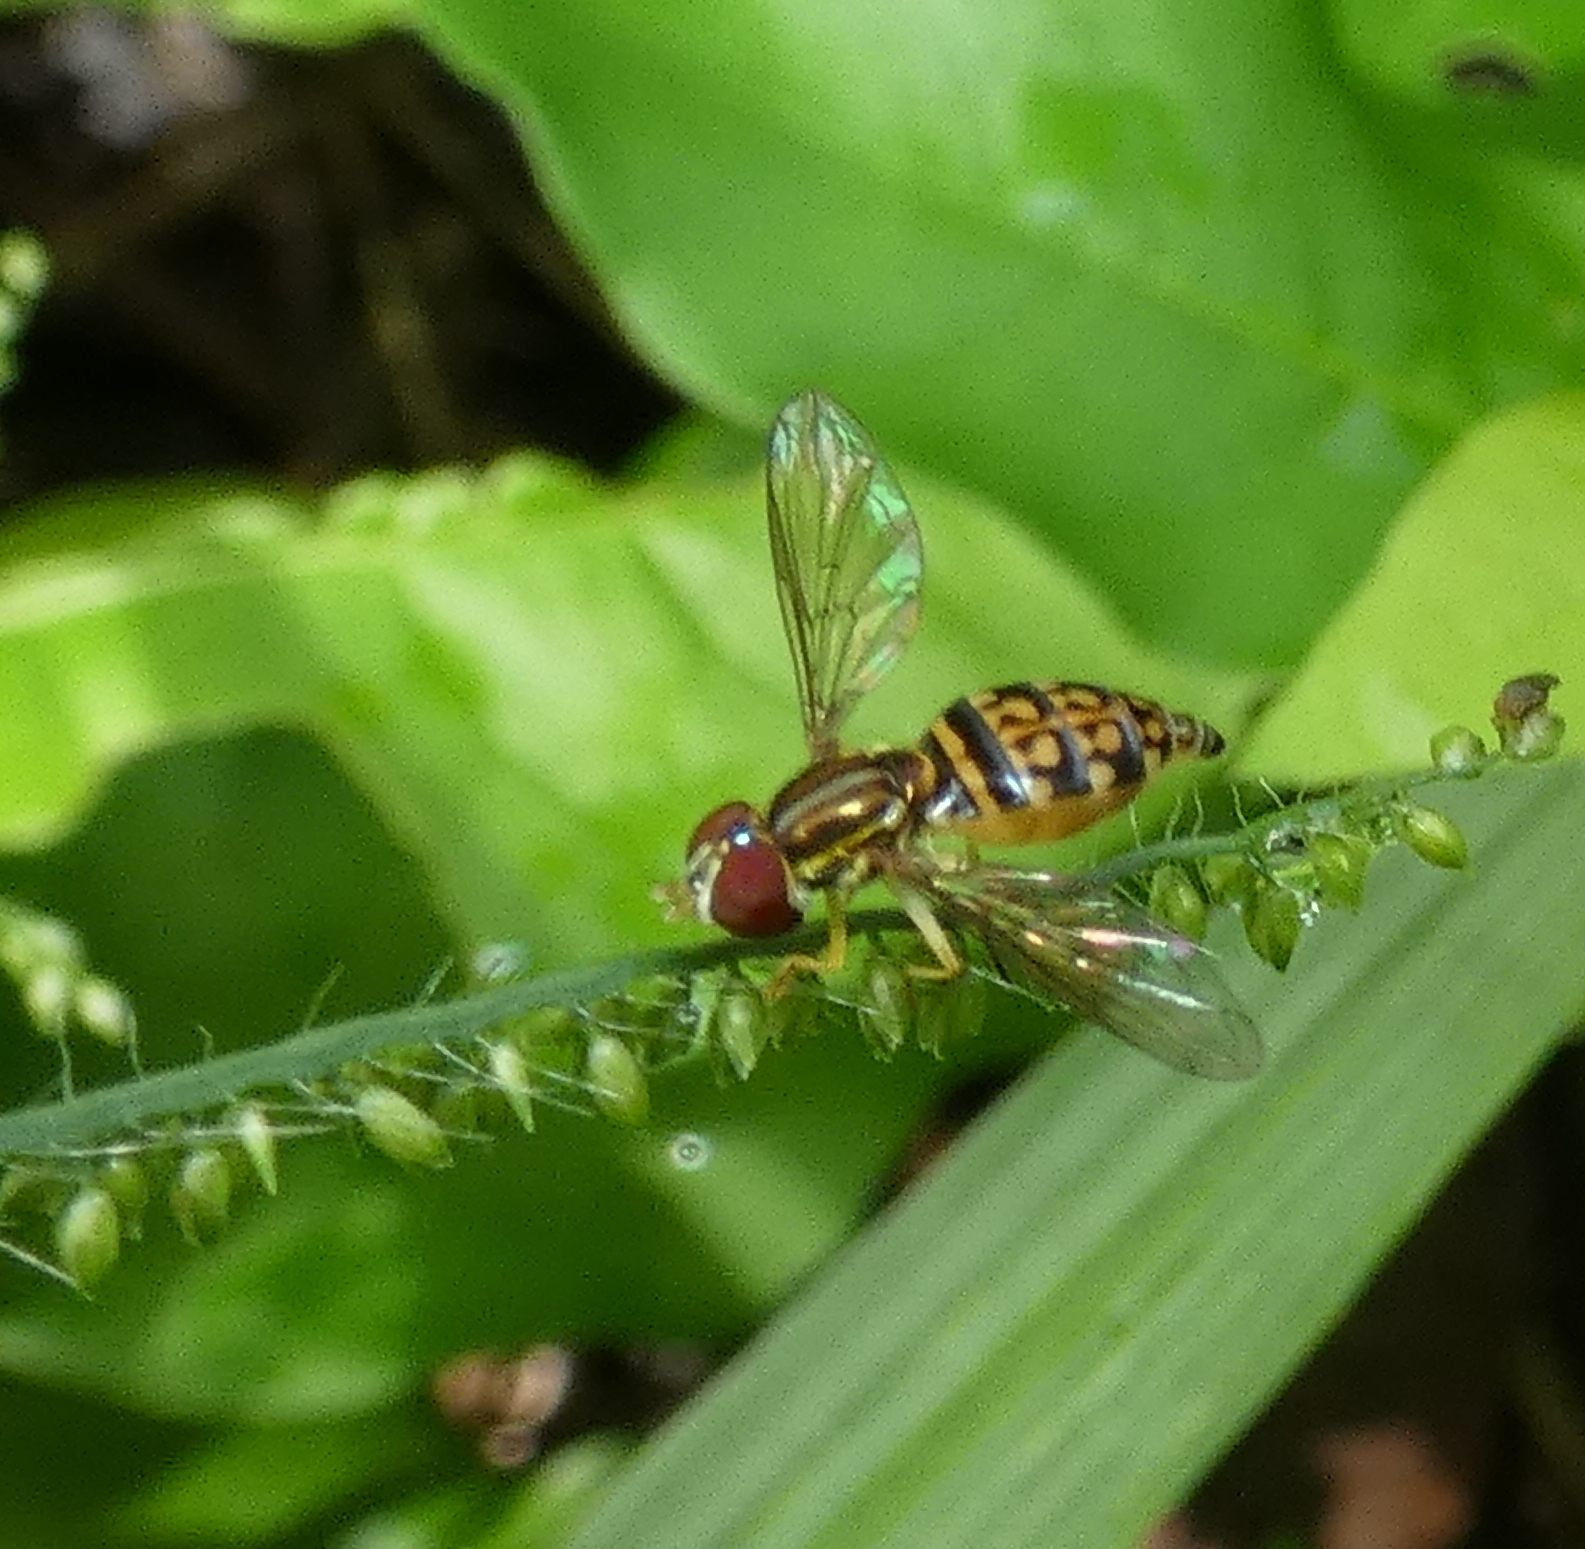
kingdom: Animalia
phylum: Arthropoda
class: Insecta
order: Diptera
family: Syrphidae
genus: Toxomerus
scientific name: Toxomerus pictus
